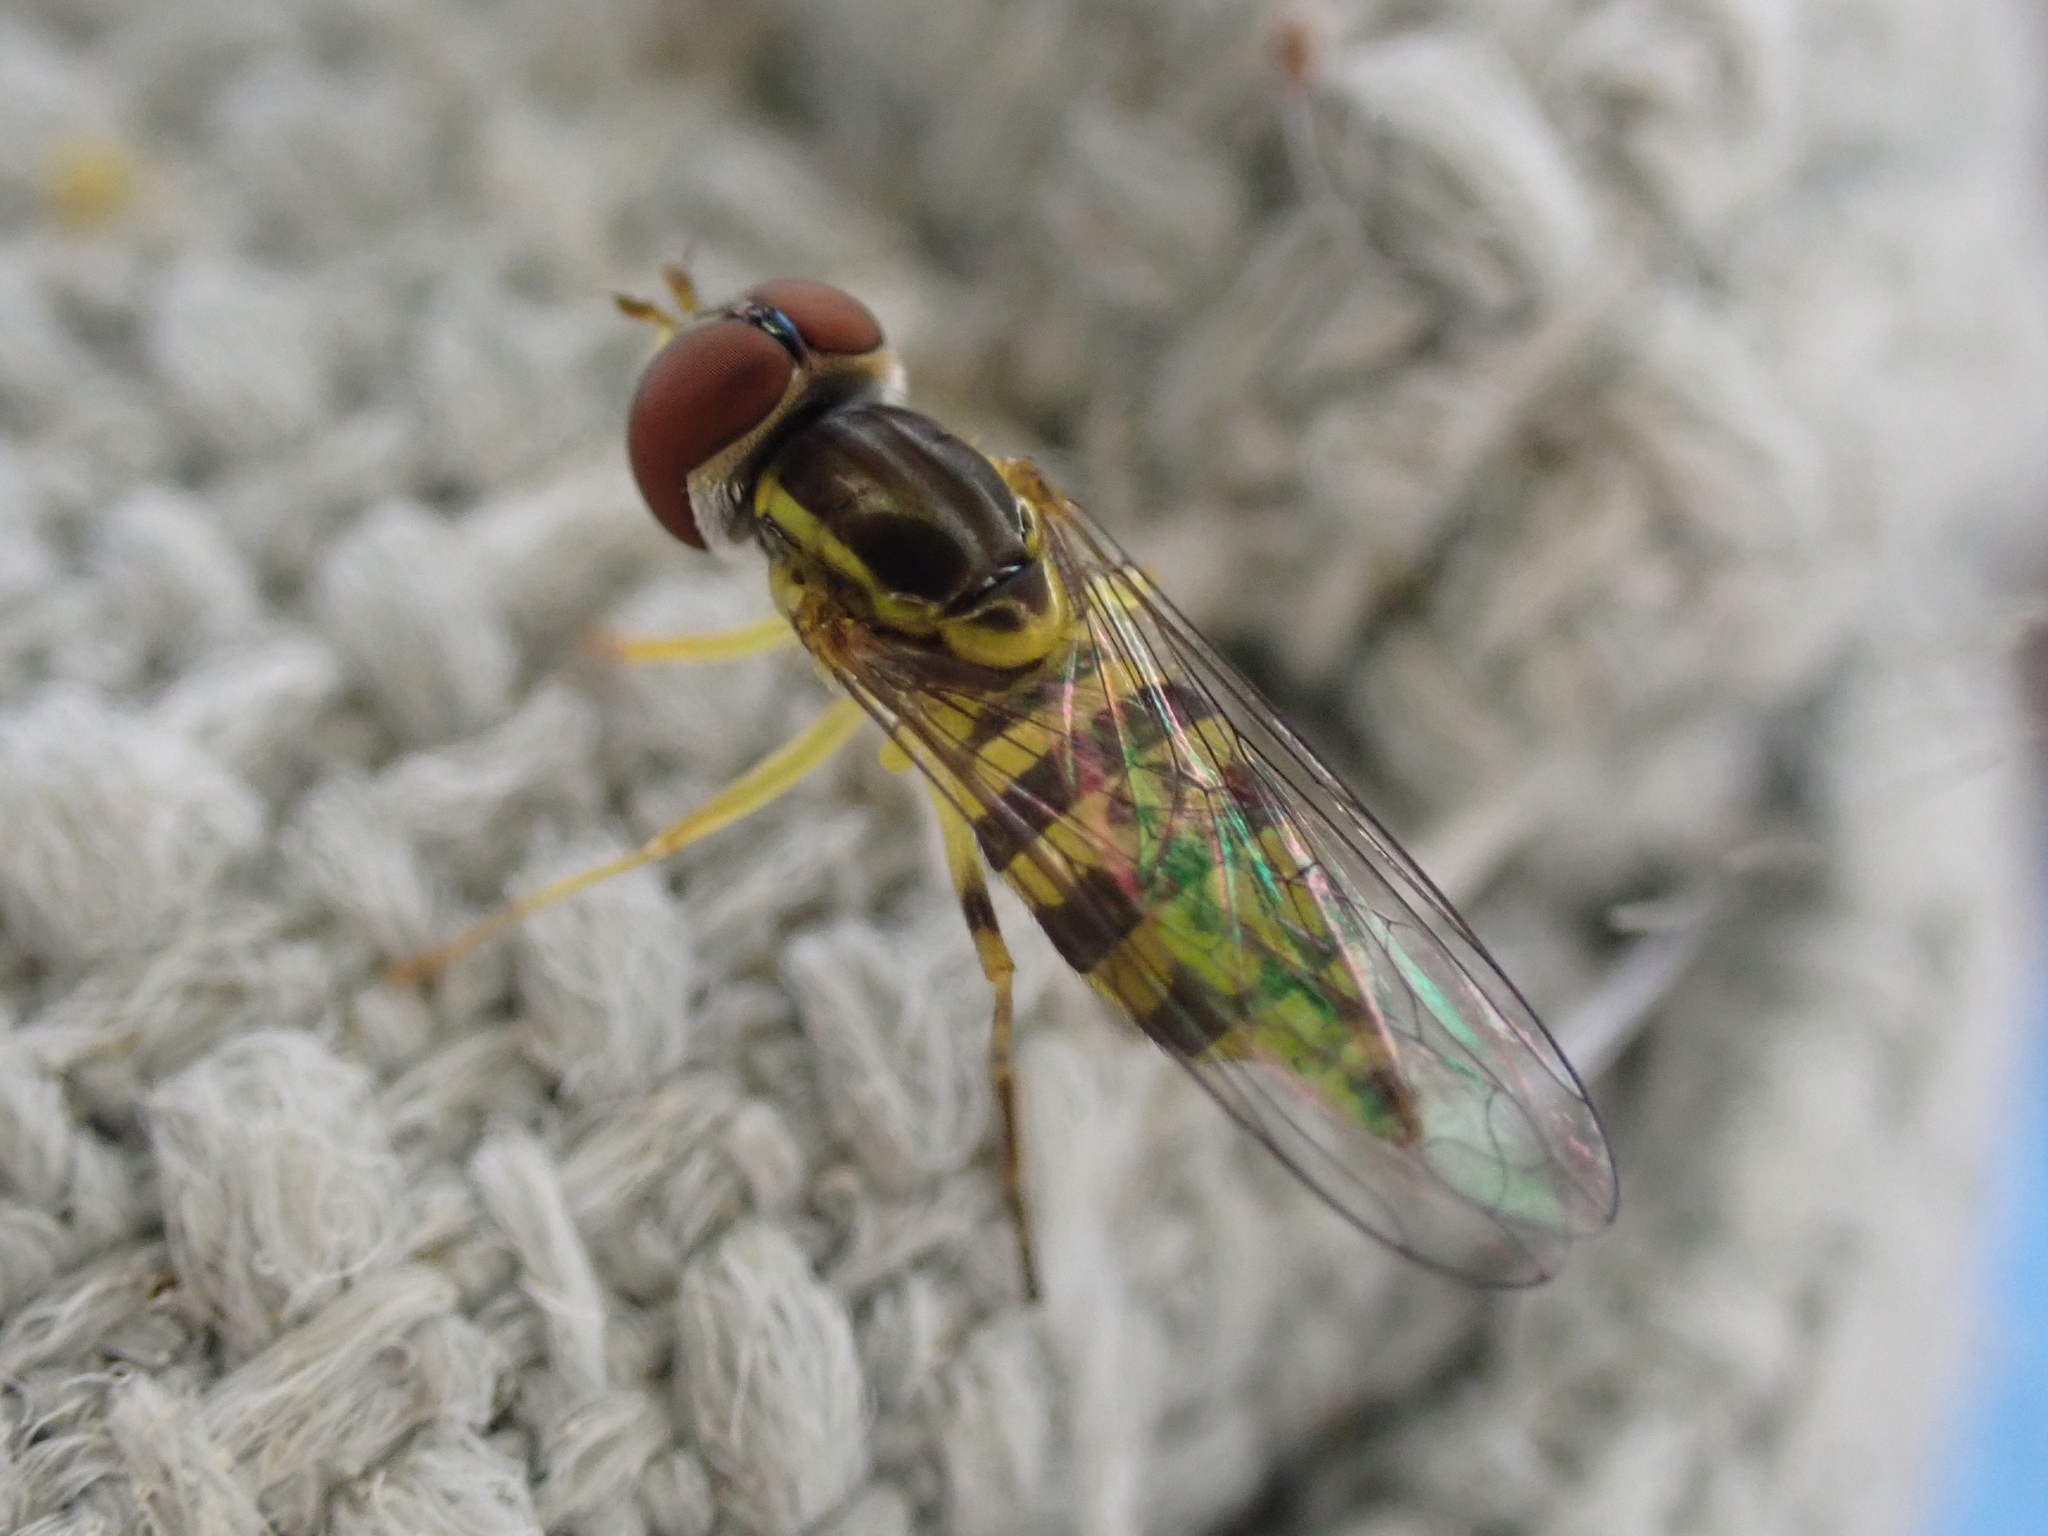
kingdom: Animalia
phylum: Arthropoda
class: Insecta
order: Diptera
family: Syrphidae
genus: Toxomerus
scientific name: Toxomerus geminatus
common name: Eastern calligrapher
